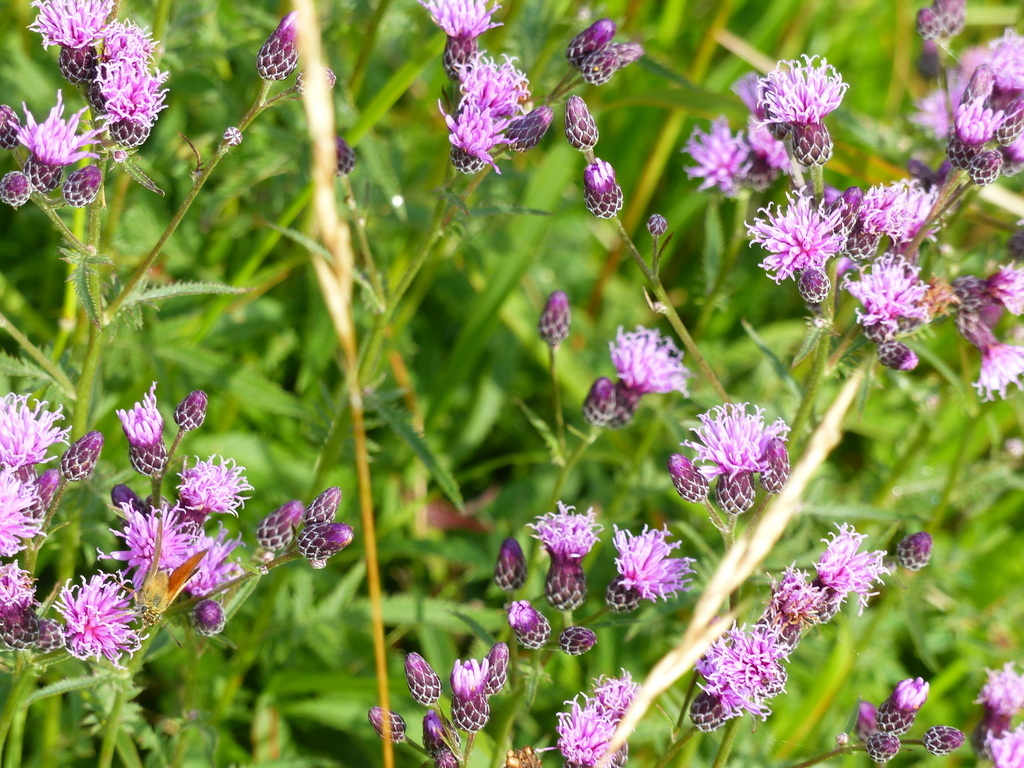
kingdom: Plantae
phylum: Tracheophyta
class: Magnoliopsida
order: Asterales
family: Asteraceae
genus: Serratula
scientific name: Serratula tinctoria
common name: Saw-wort
